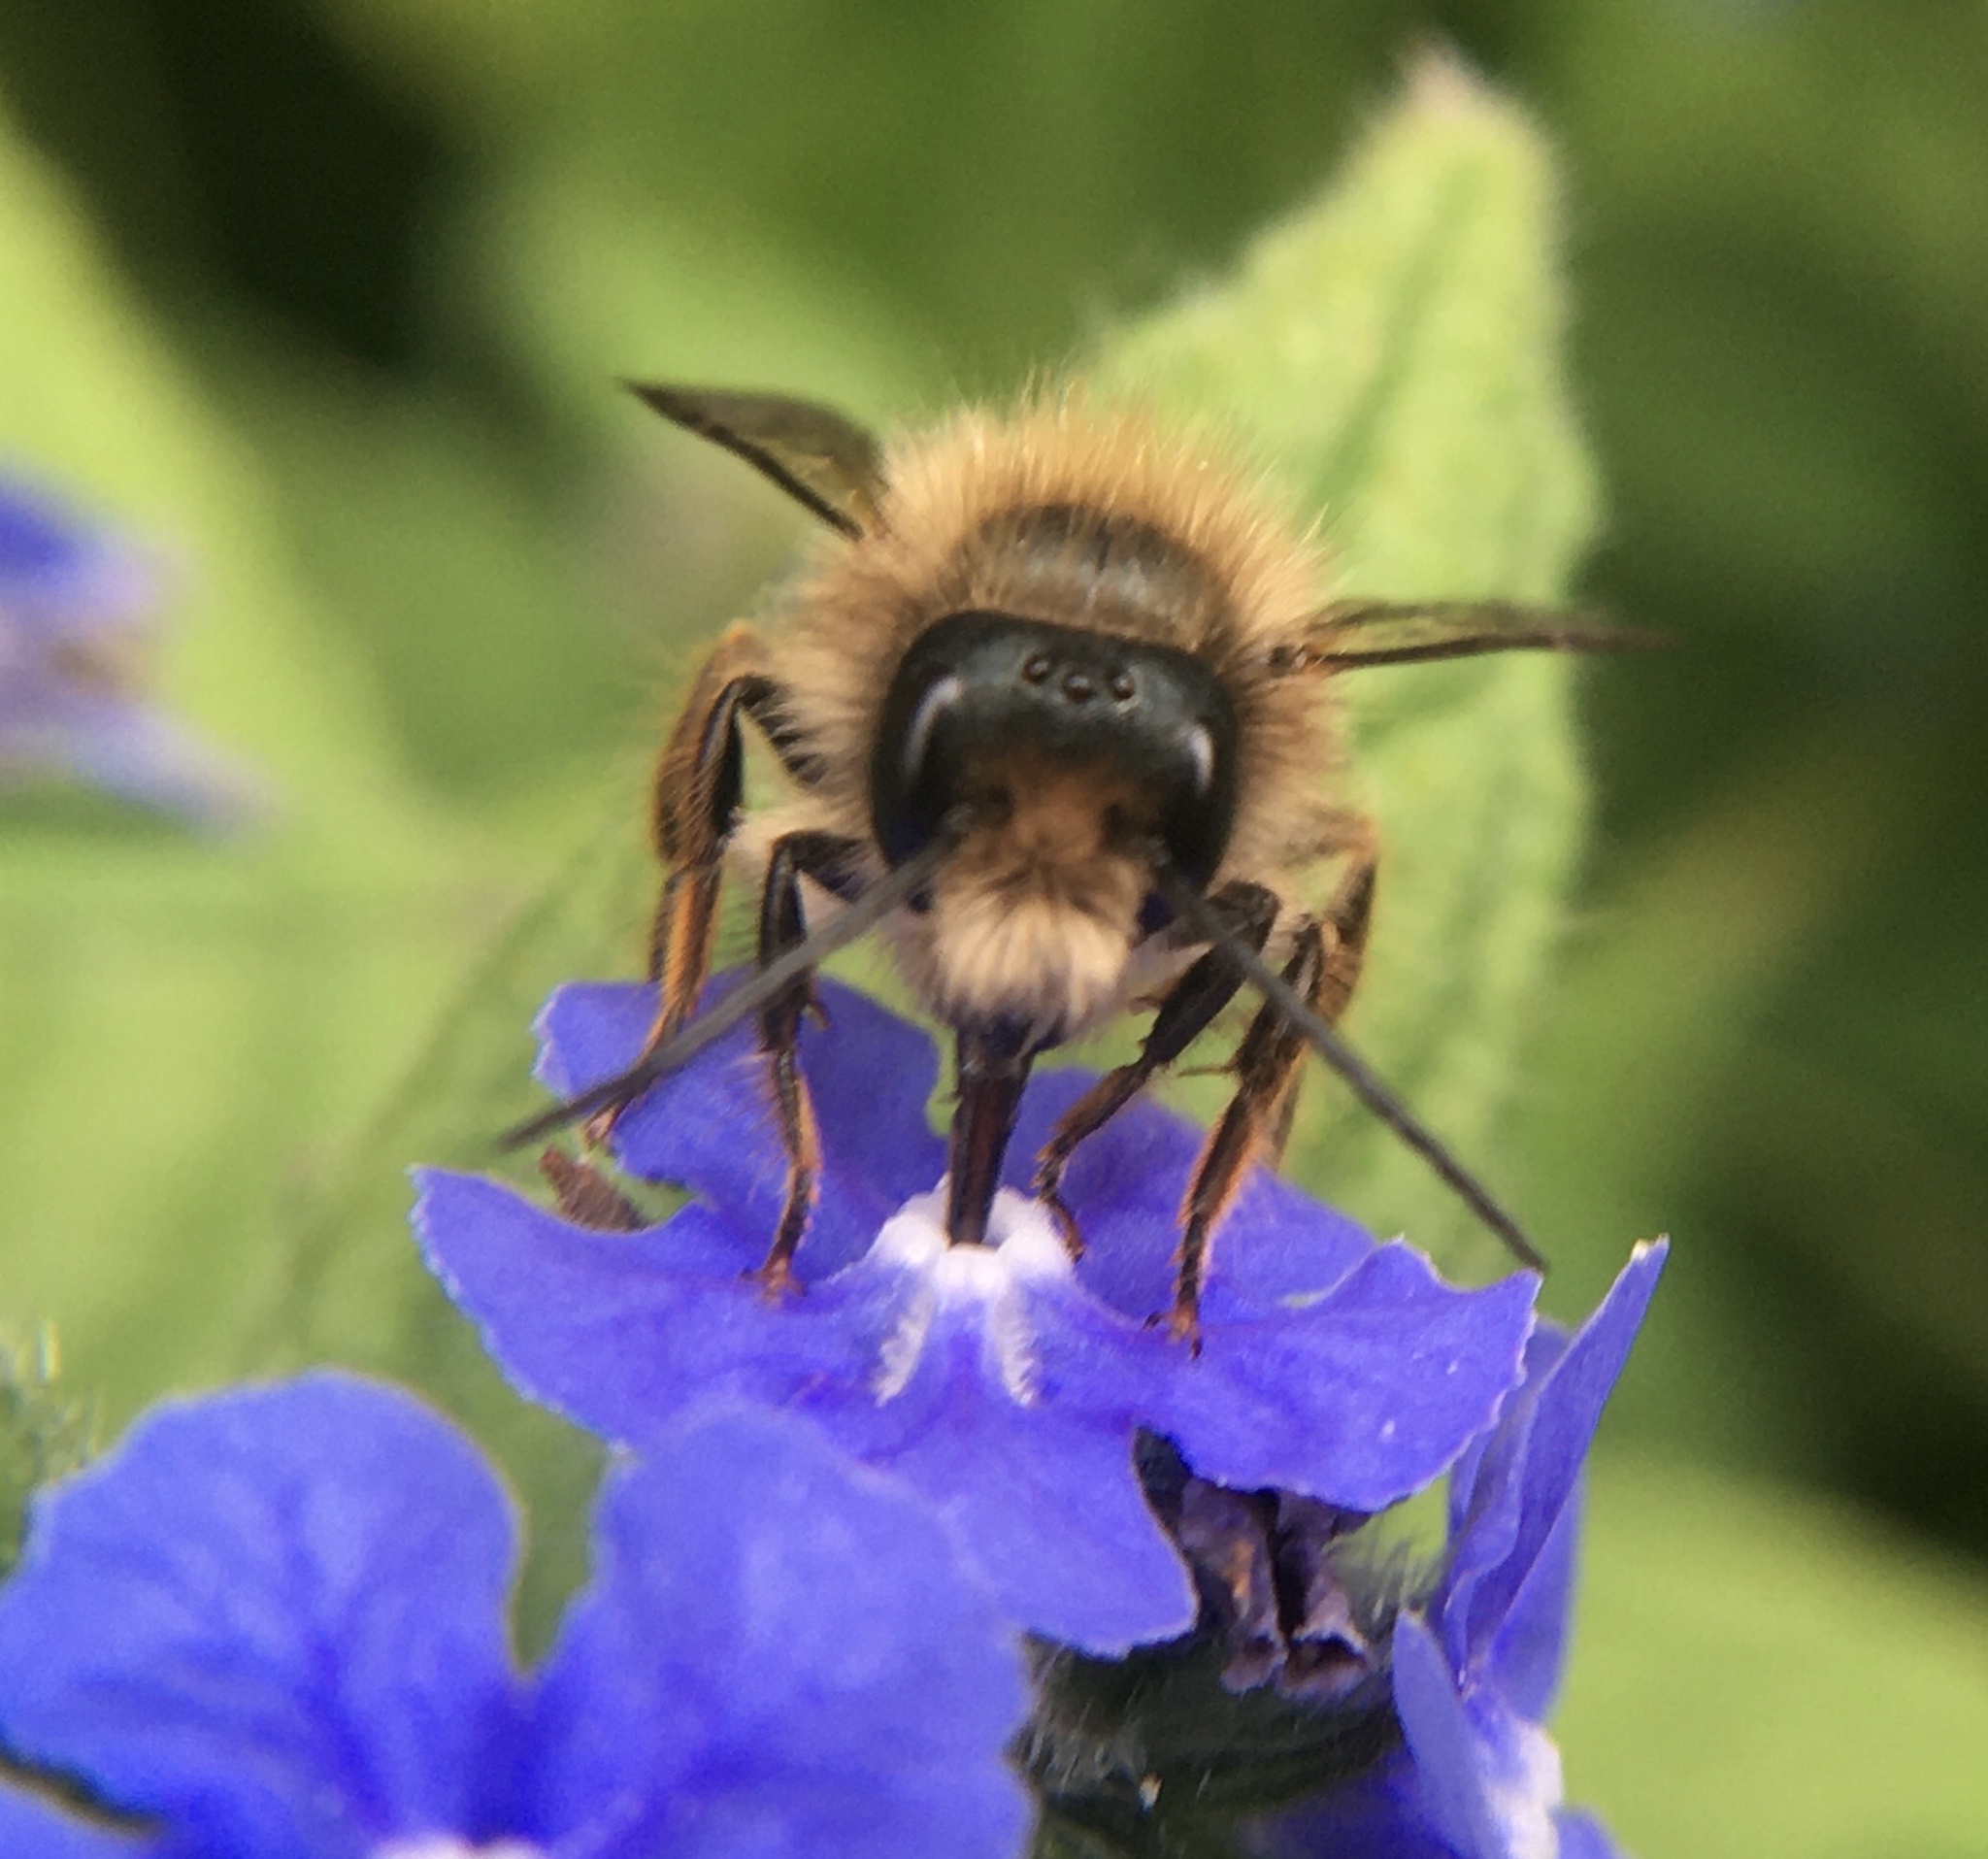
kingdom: Animalia
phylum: Arthropoda
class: Insecta
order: Hymenoptera
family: Megachilidae
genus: Osmia
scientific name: Osmia bicornis
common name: Red mason bee
